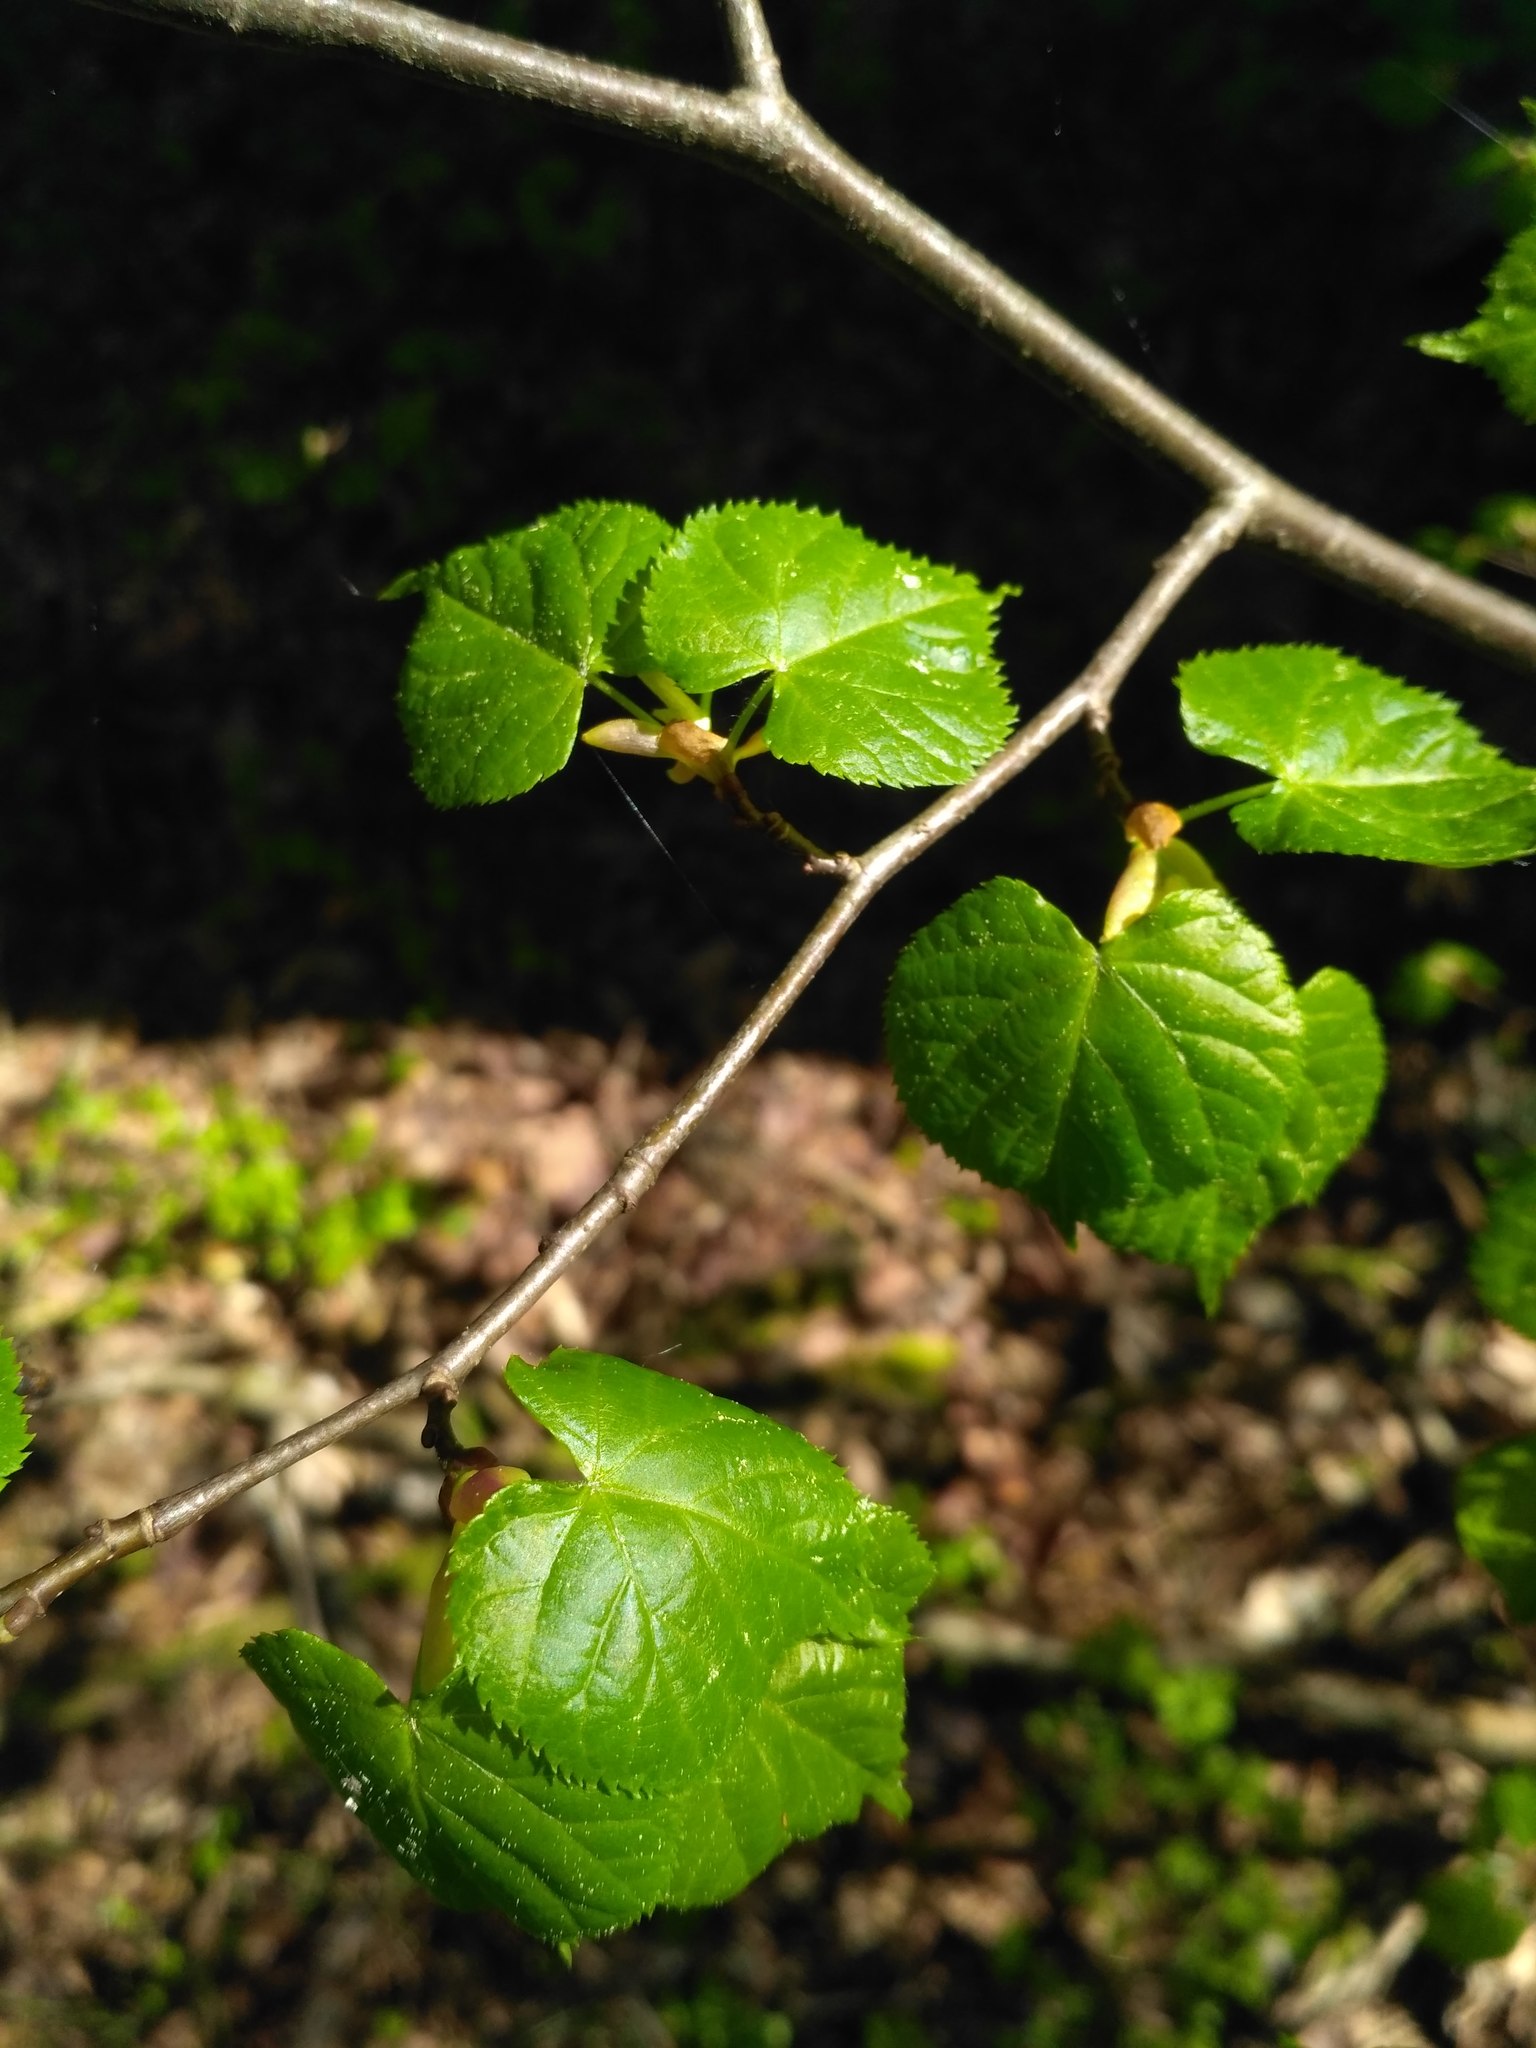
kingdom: Plantae
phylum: Tracheophyta
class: Magnoliopsida
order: Malvales
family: Malvaceae
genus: Tilia
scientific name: Tilia cordata
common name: Small-leaved lime
